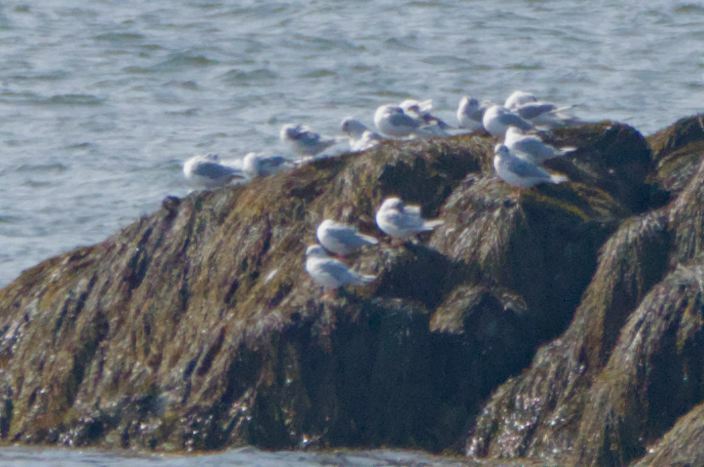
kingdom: Animalia
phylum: Chordata
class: Aves
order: Charadriiformes
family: Laridae
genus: Chroicocephalus
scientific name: Chroicocephalus philadelphia
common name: Bonaparte's gull
